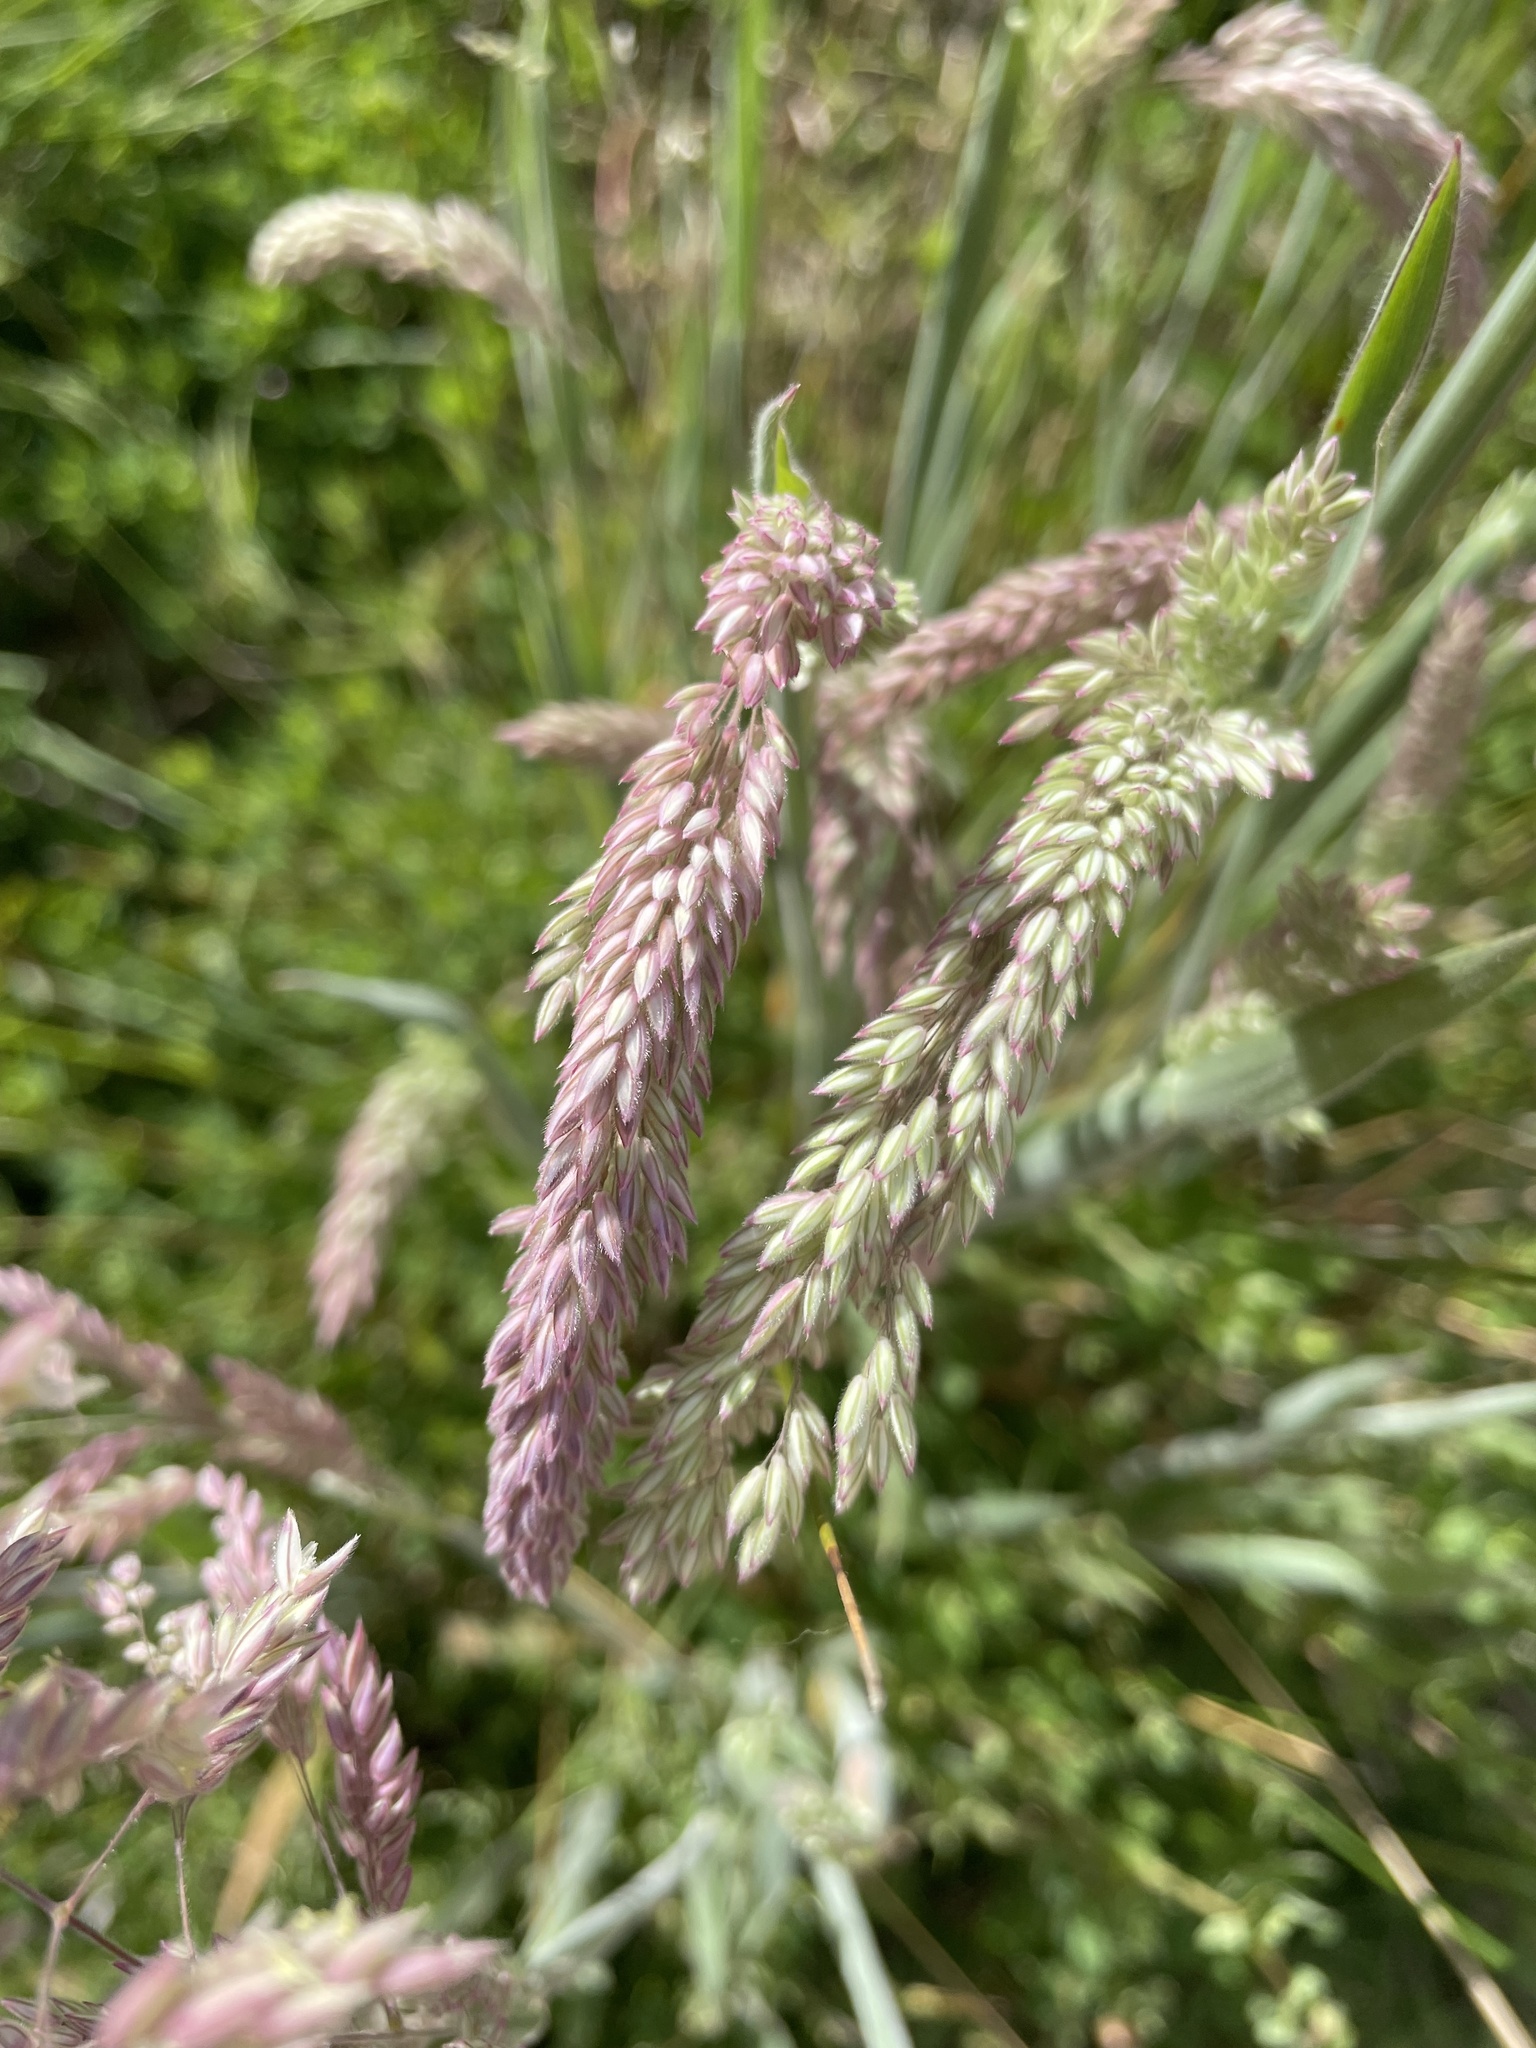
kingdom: Plantae
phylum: Tracheophyta
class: Liliopsida
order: Poales
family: Poaceae
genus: Holcus
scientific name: Holcus lanatus
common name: Yorkshire-fog
